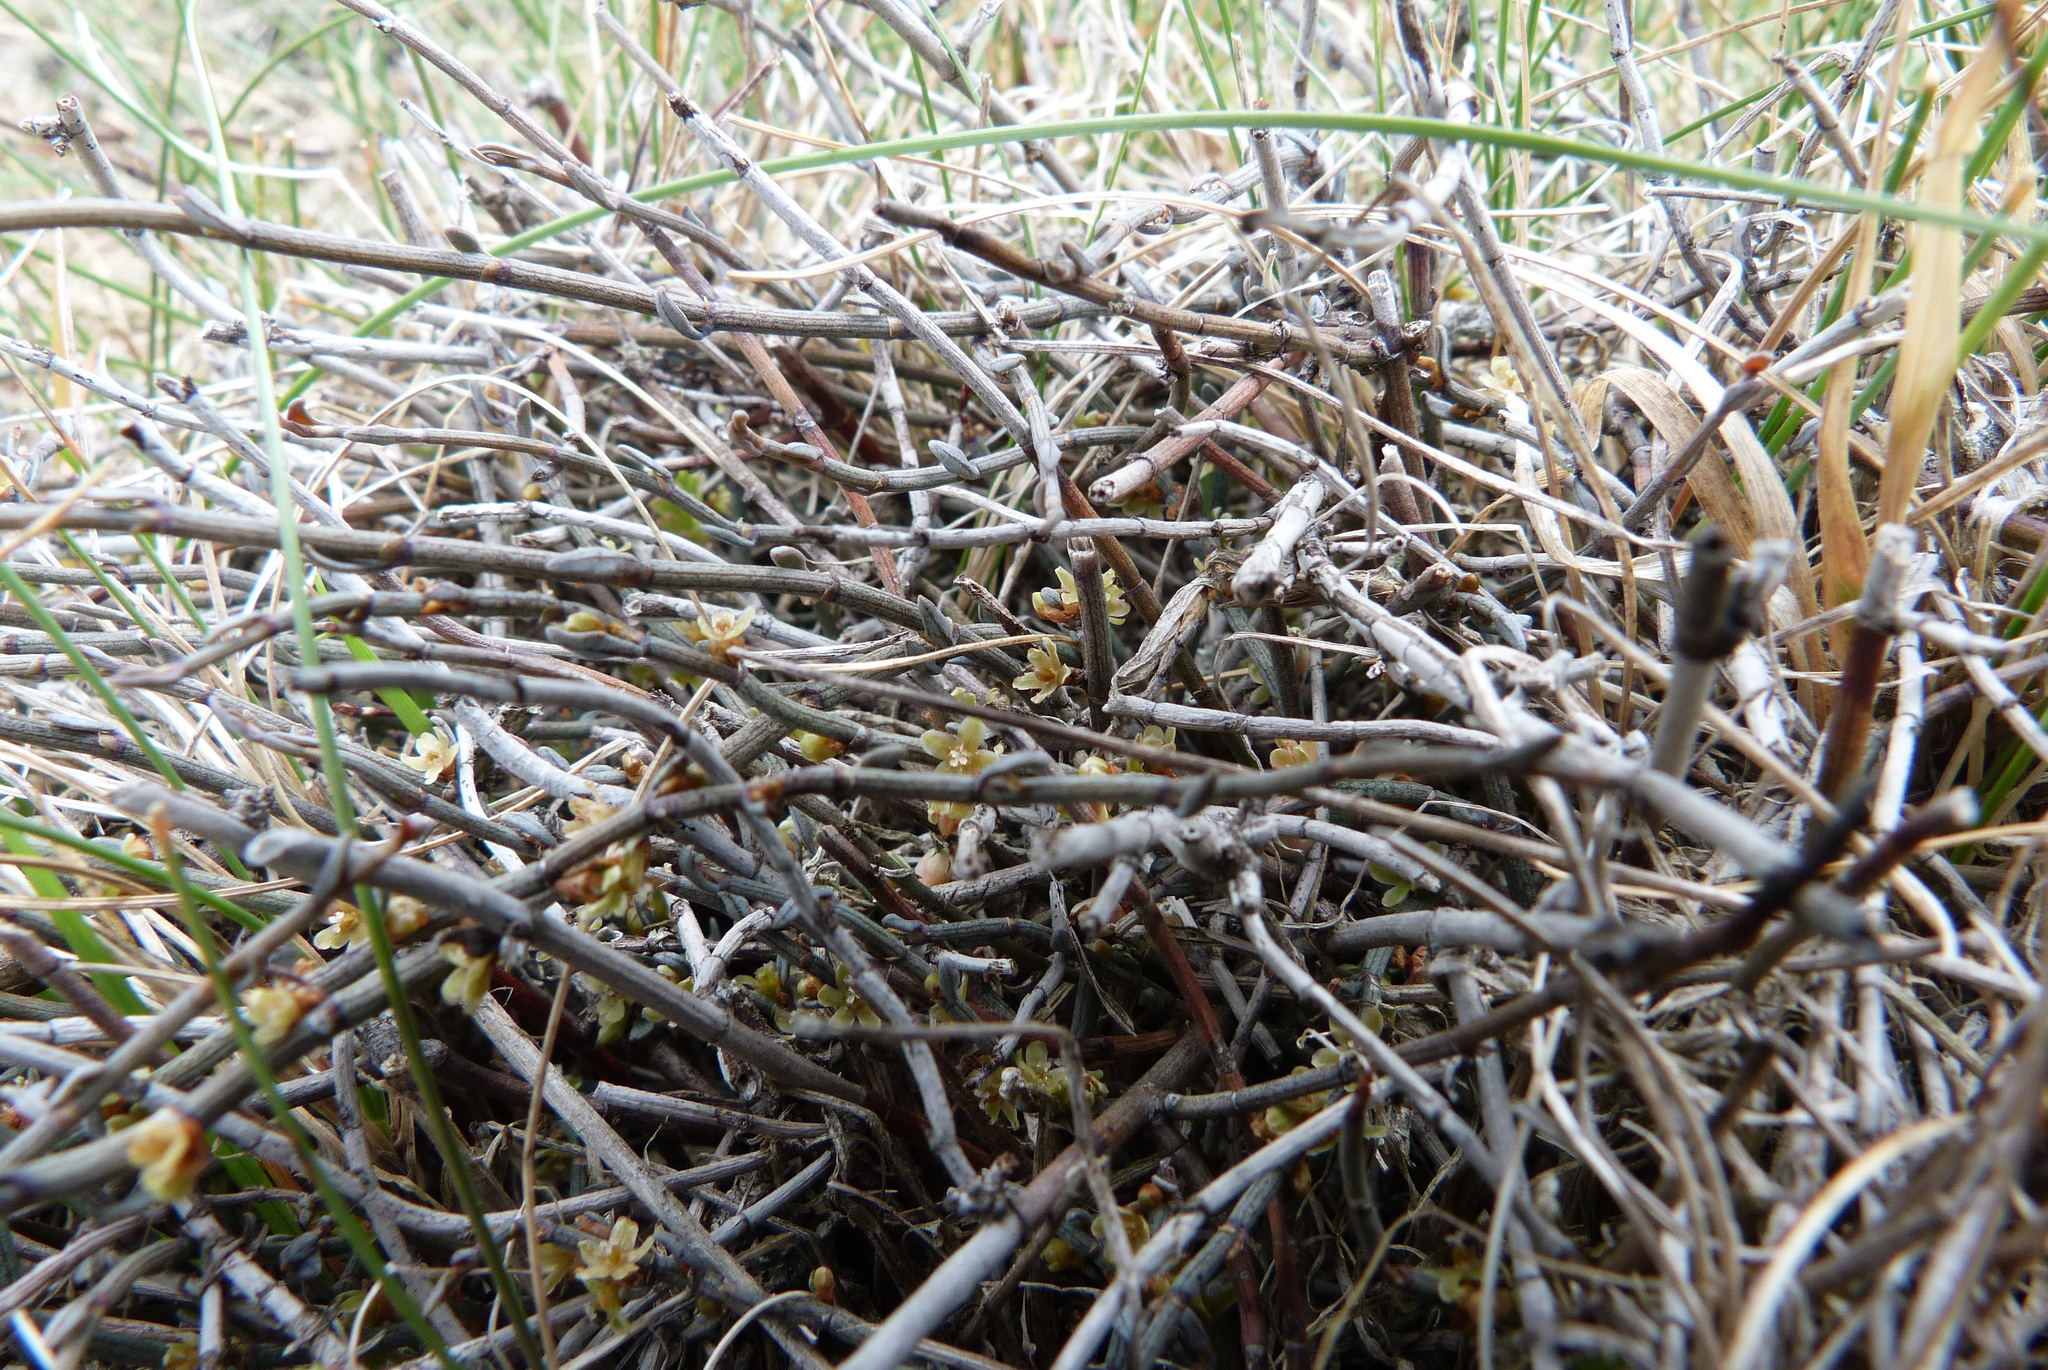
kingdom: Plantae
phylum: Tracheophyta
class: Magnoliopsida
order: Caryophyllales
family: Polygonaceae
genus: Muehlenbeckia
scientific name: Muehlenbeckia ephedroides
